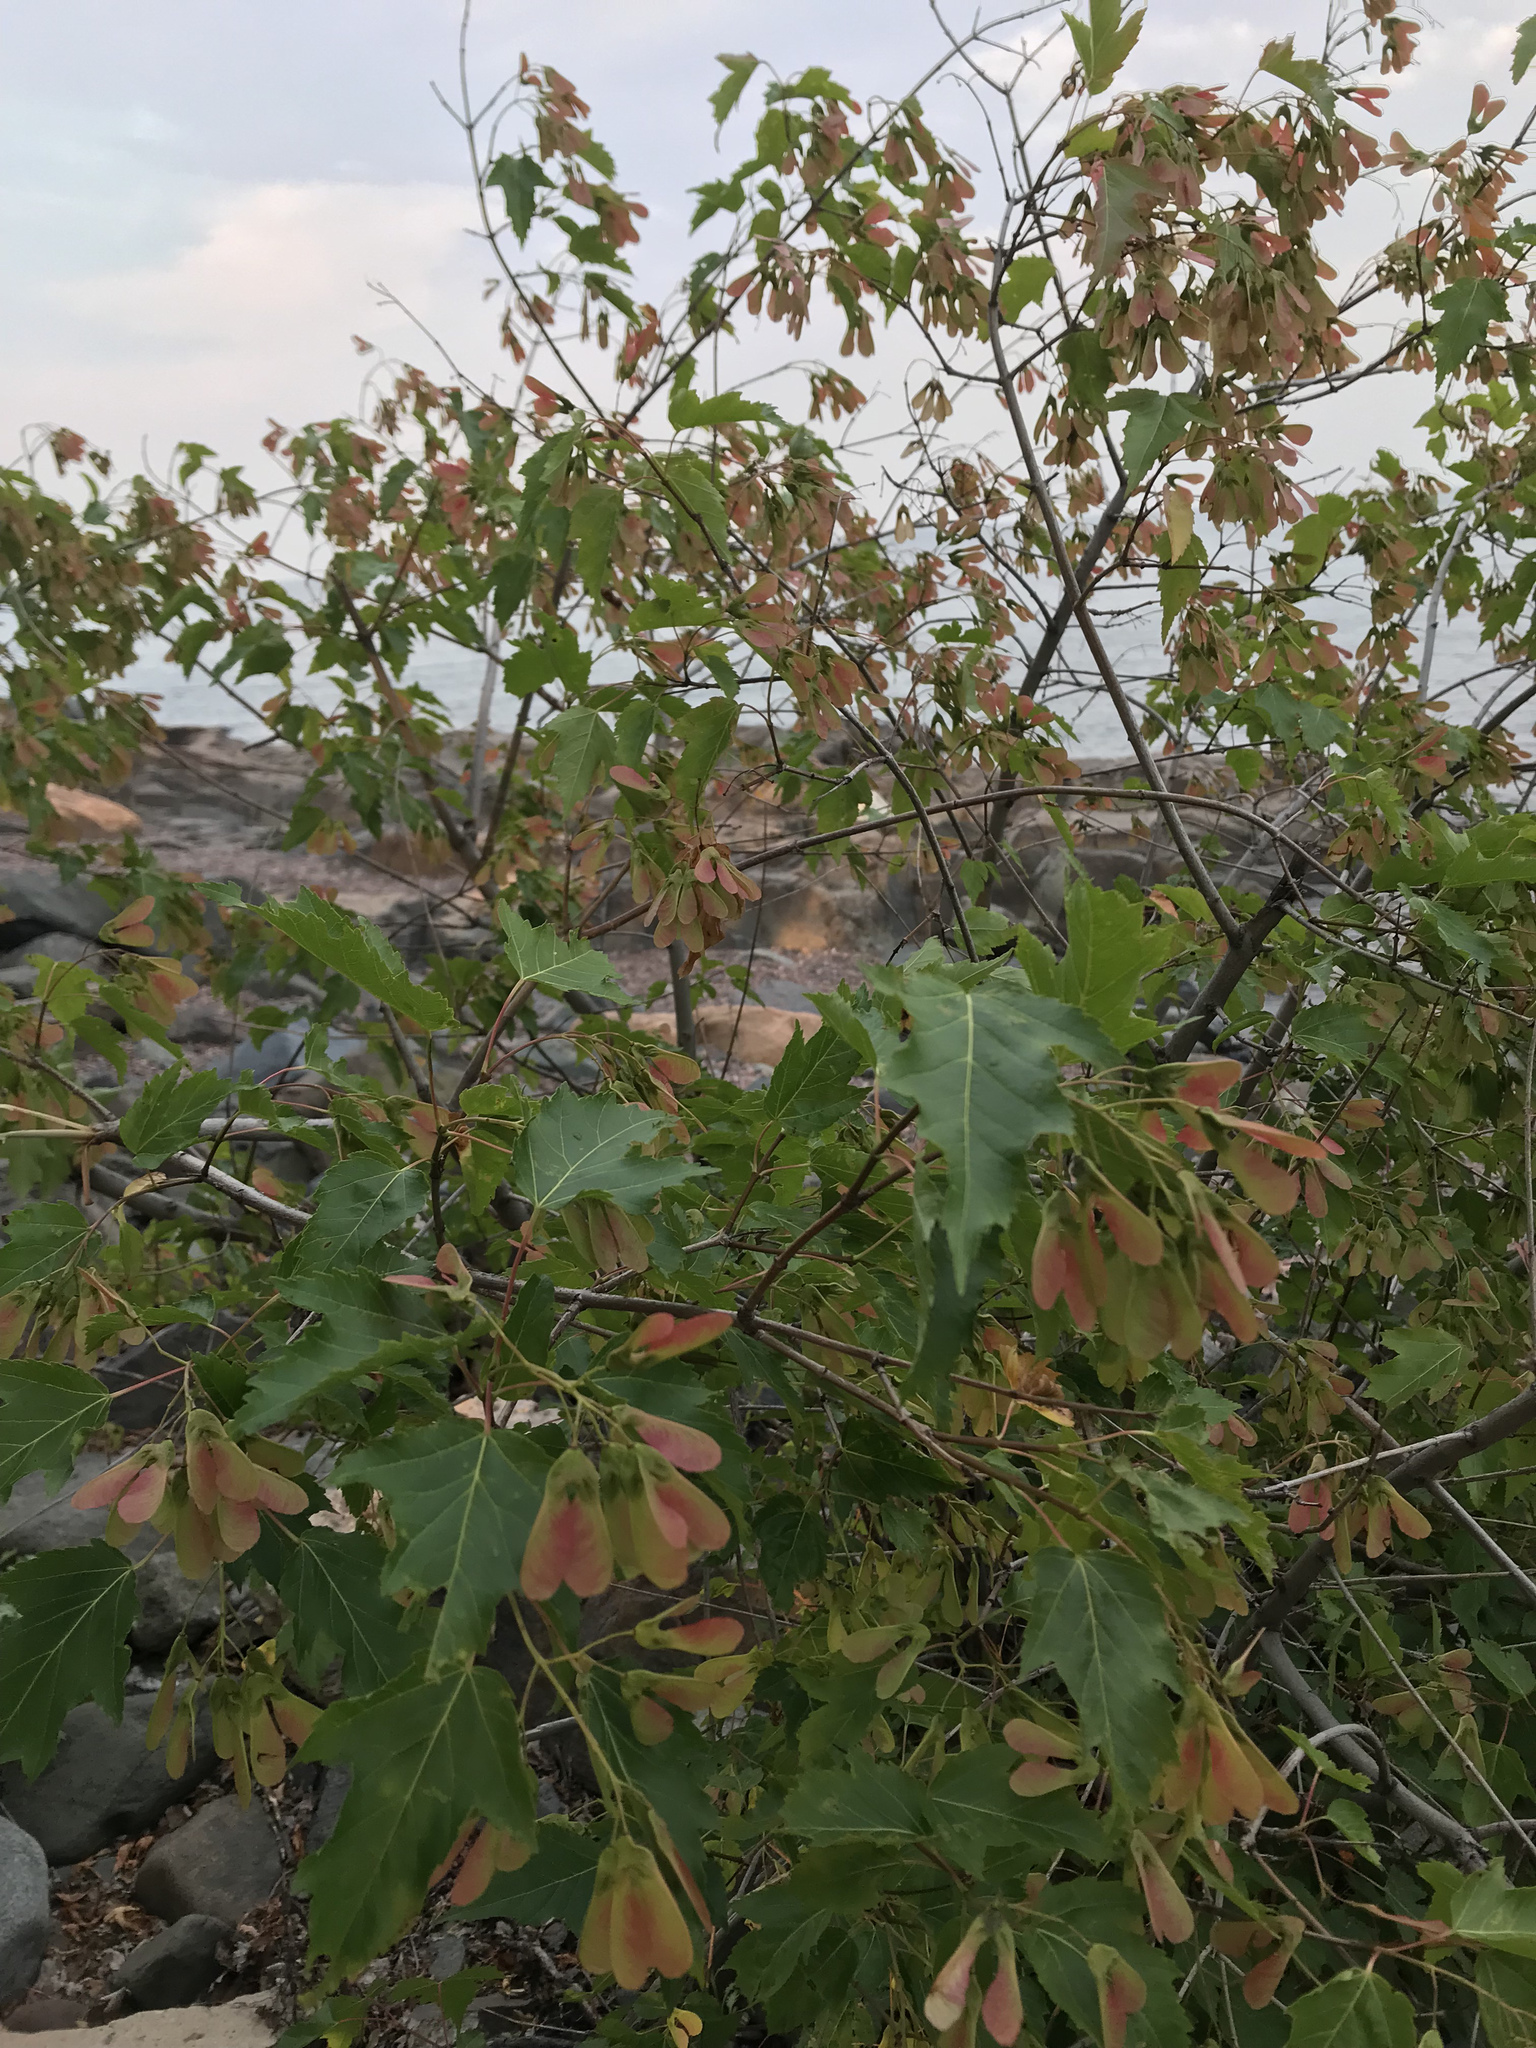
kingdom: Plantae
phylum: Tracheophyta
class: Magnoliopsida
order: Sapindales
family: Sapindaceae
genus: Acer
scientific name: Acer tataricum
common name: Tartar maple
